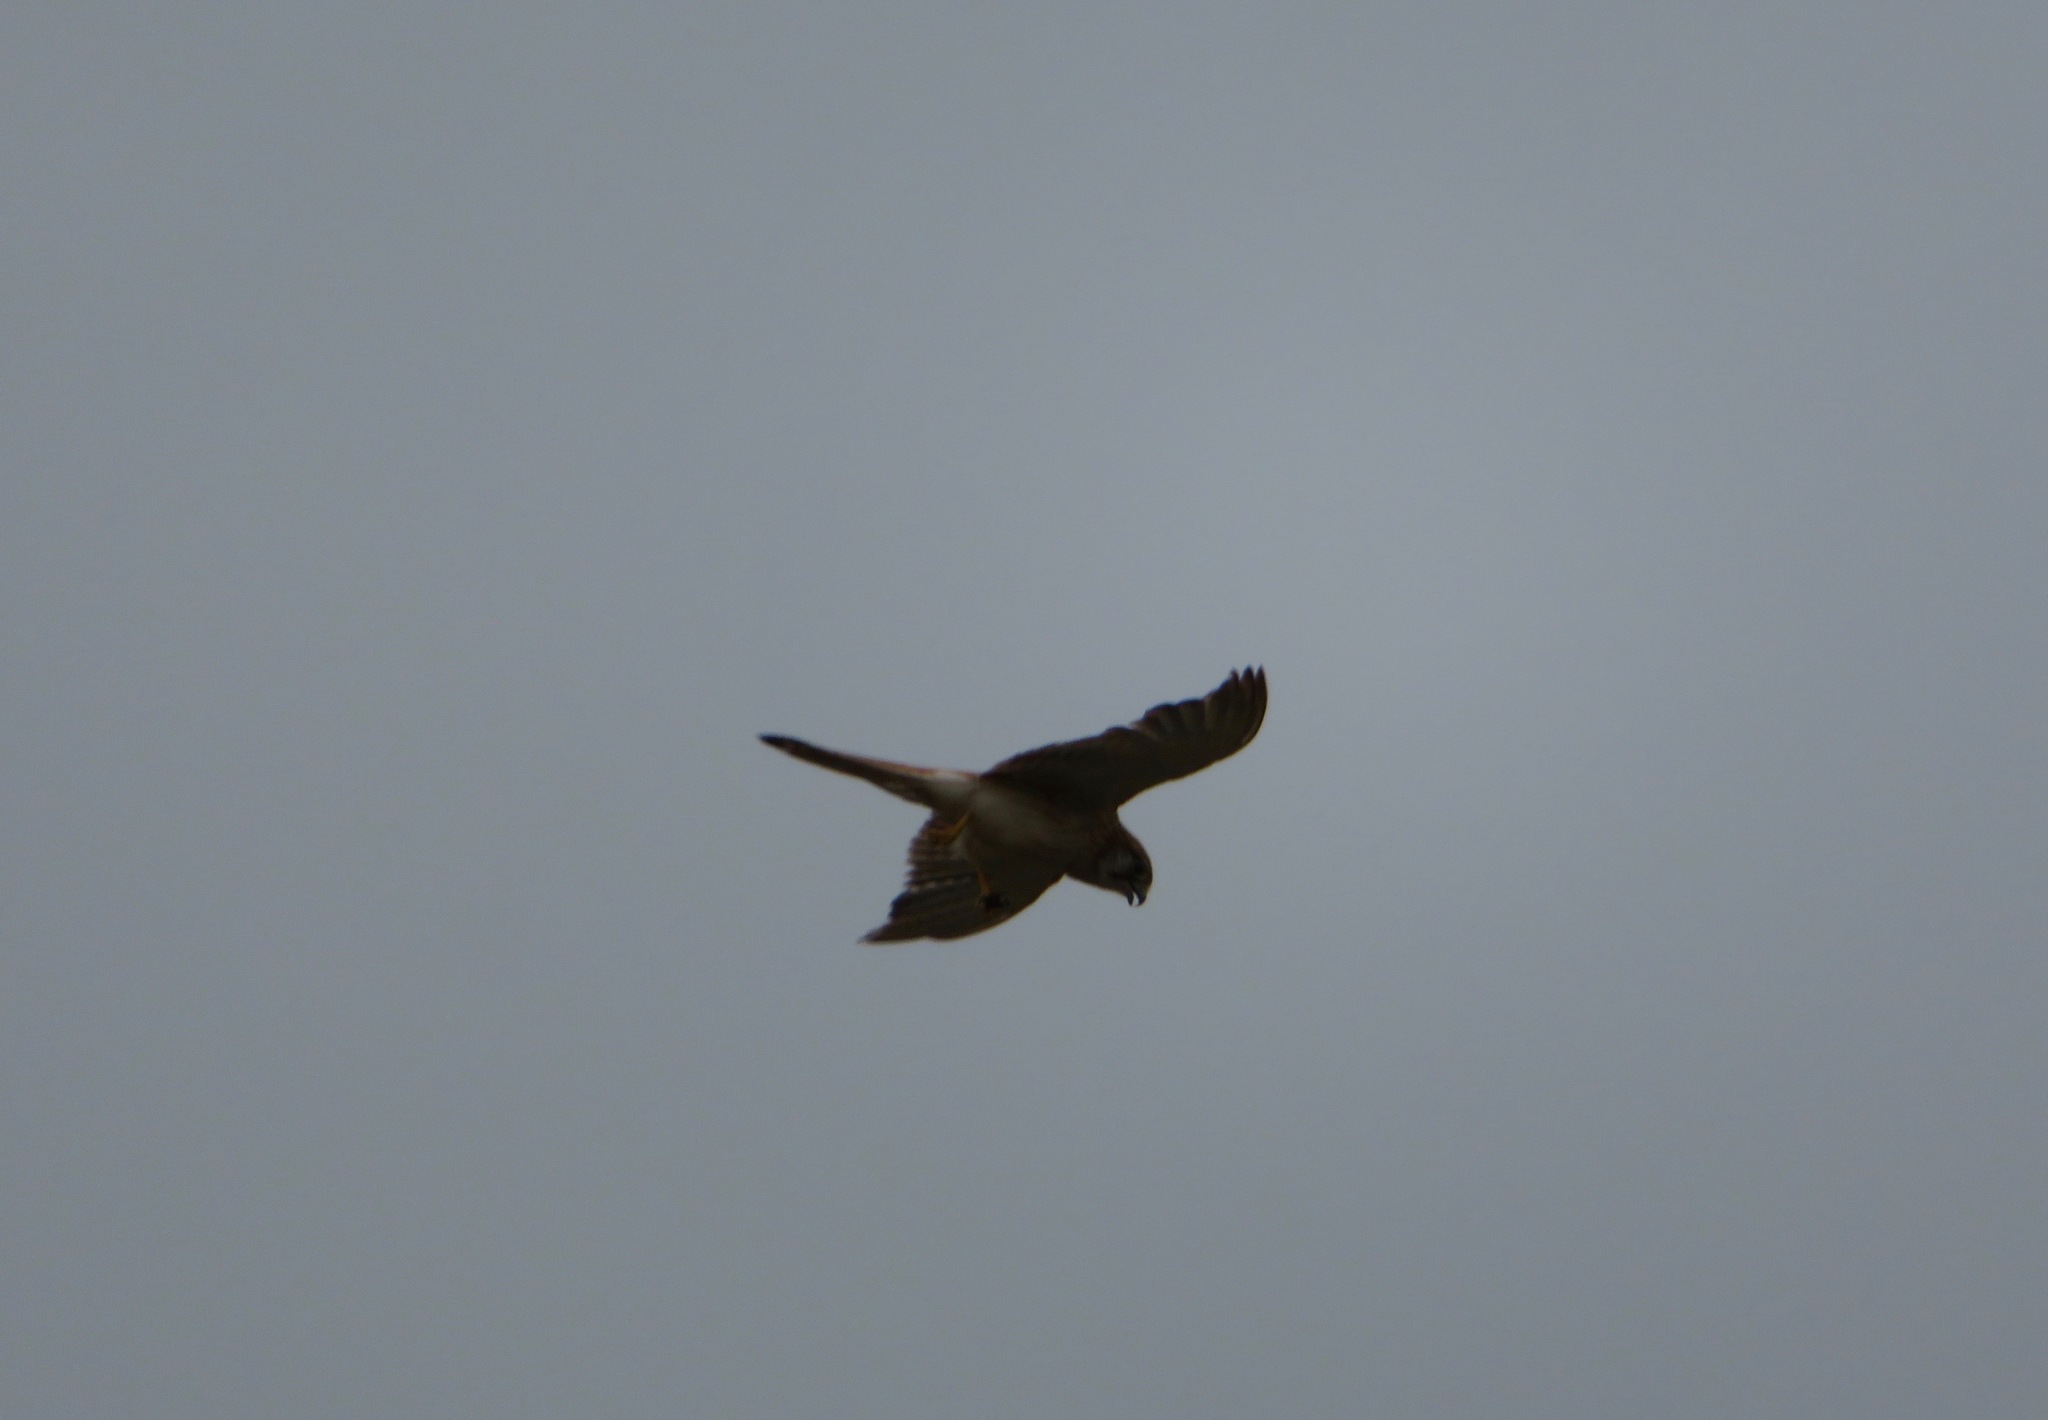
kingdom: Animalia
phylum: Chordata
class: Aves
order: Falconiformes
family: Falconidae
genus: Falco
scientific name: Falco cenchroides
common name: Nankeen kestrel
